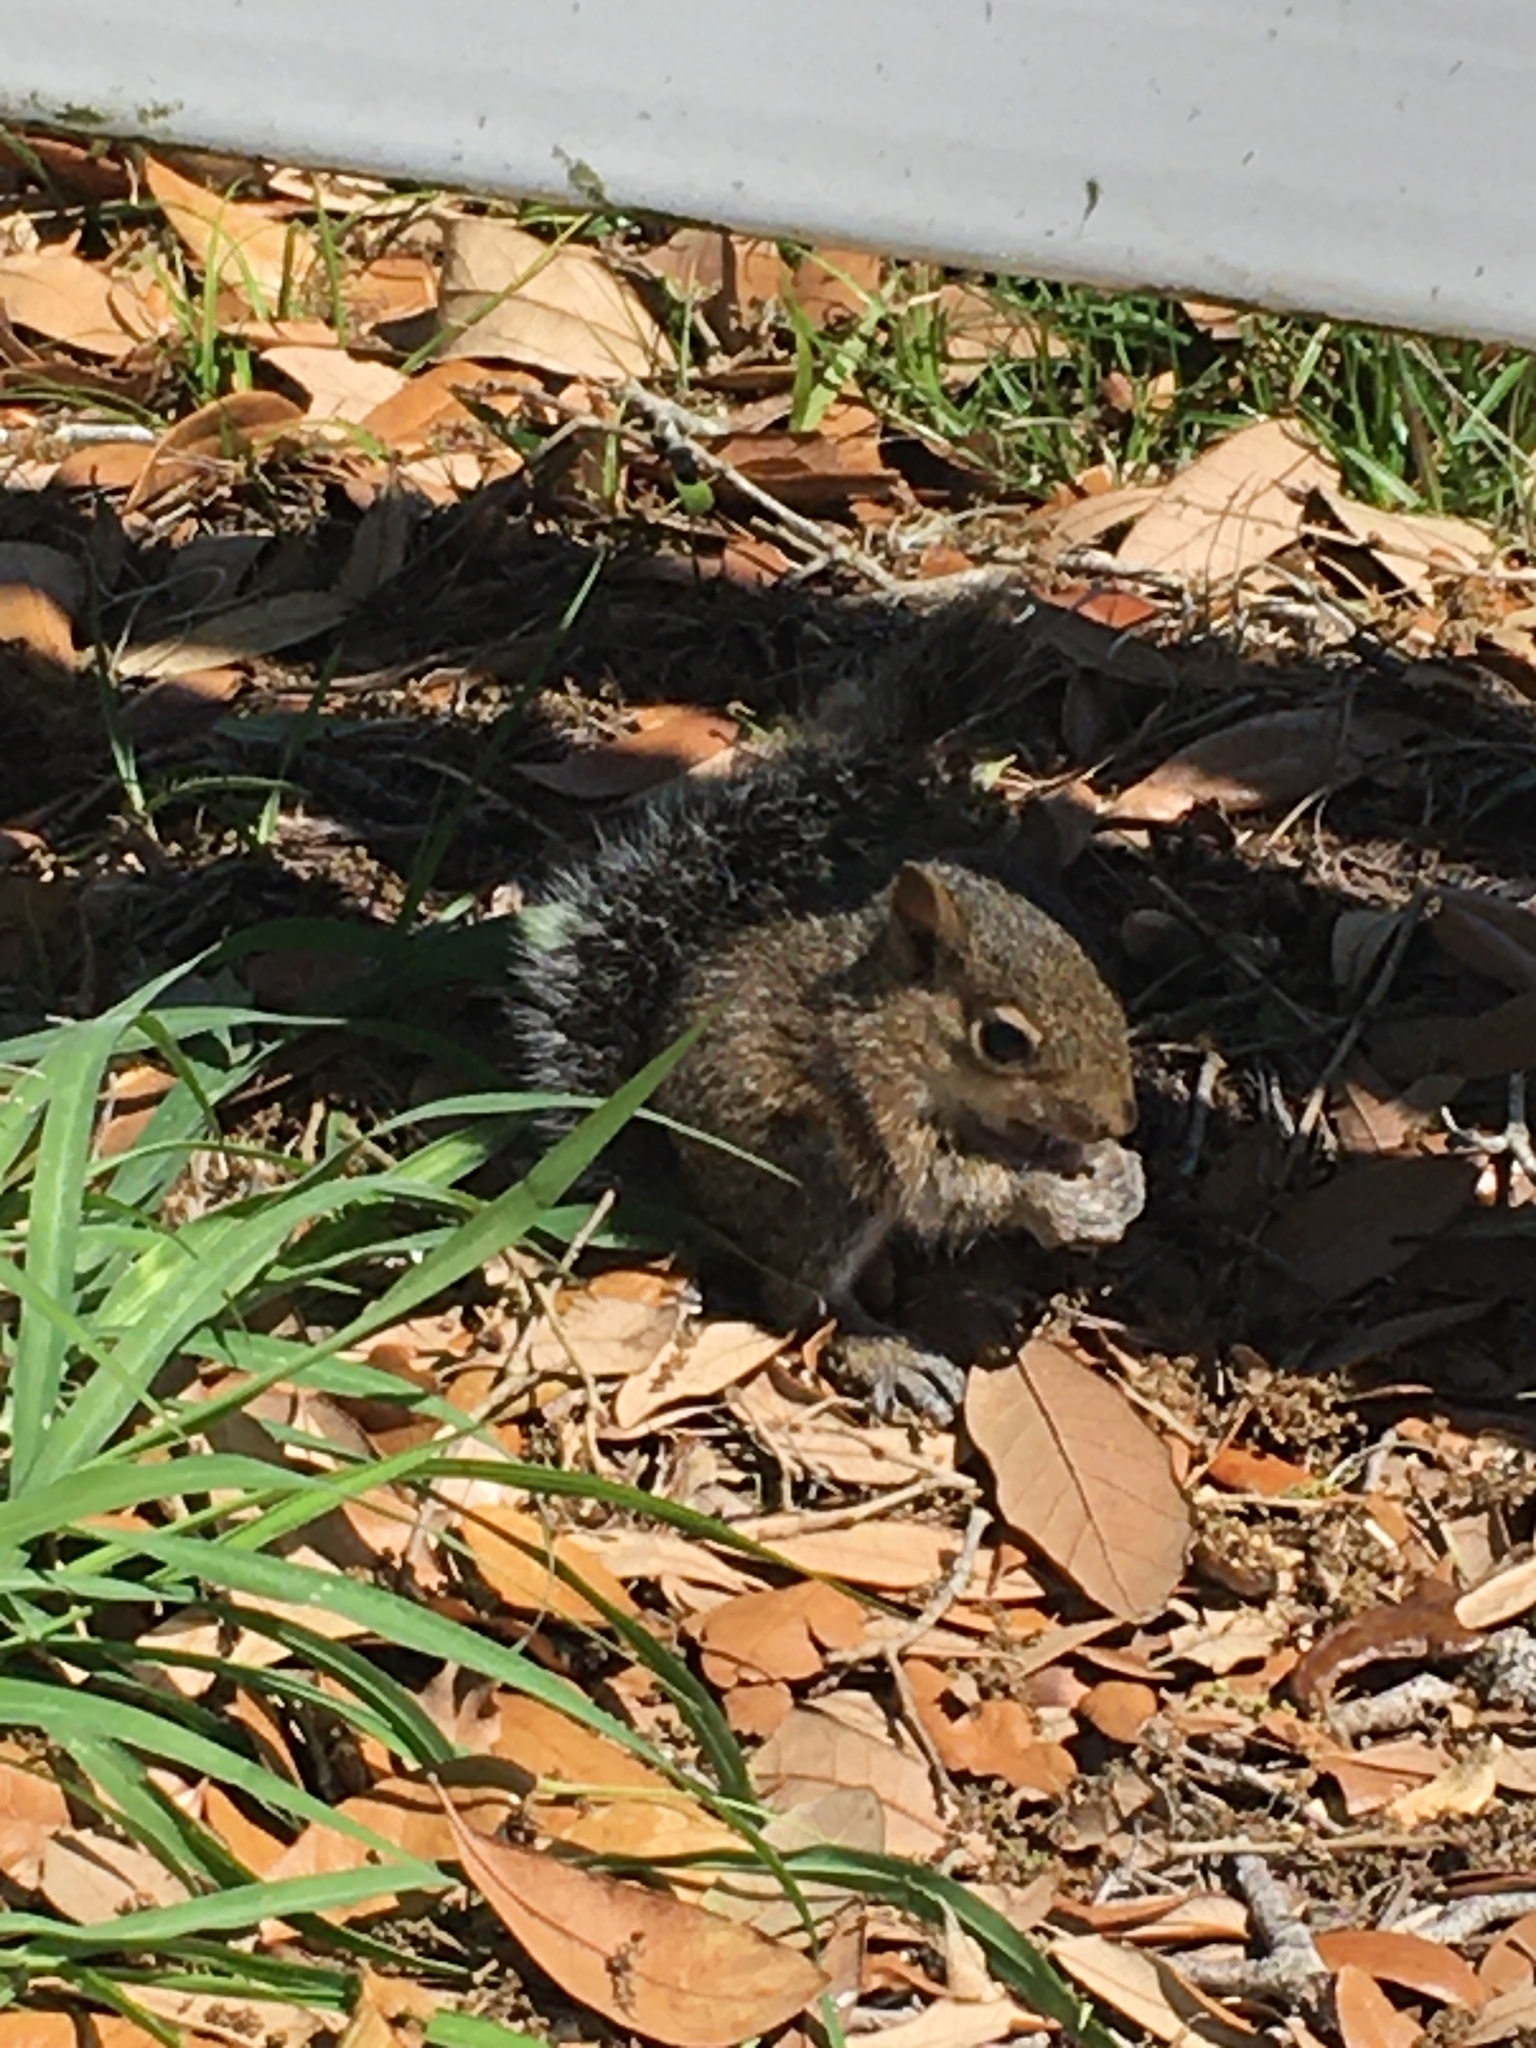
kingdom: Animalia
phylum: Chordata
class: Mammalia
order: Rodentia
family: Sciuridae
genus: Sciurus
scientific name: Sciurus carolinensis
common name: Eastern gray squirrel
